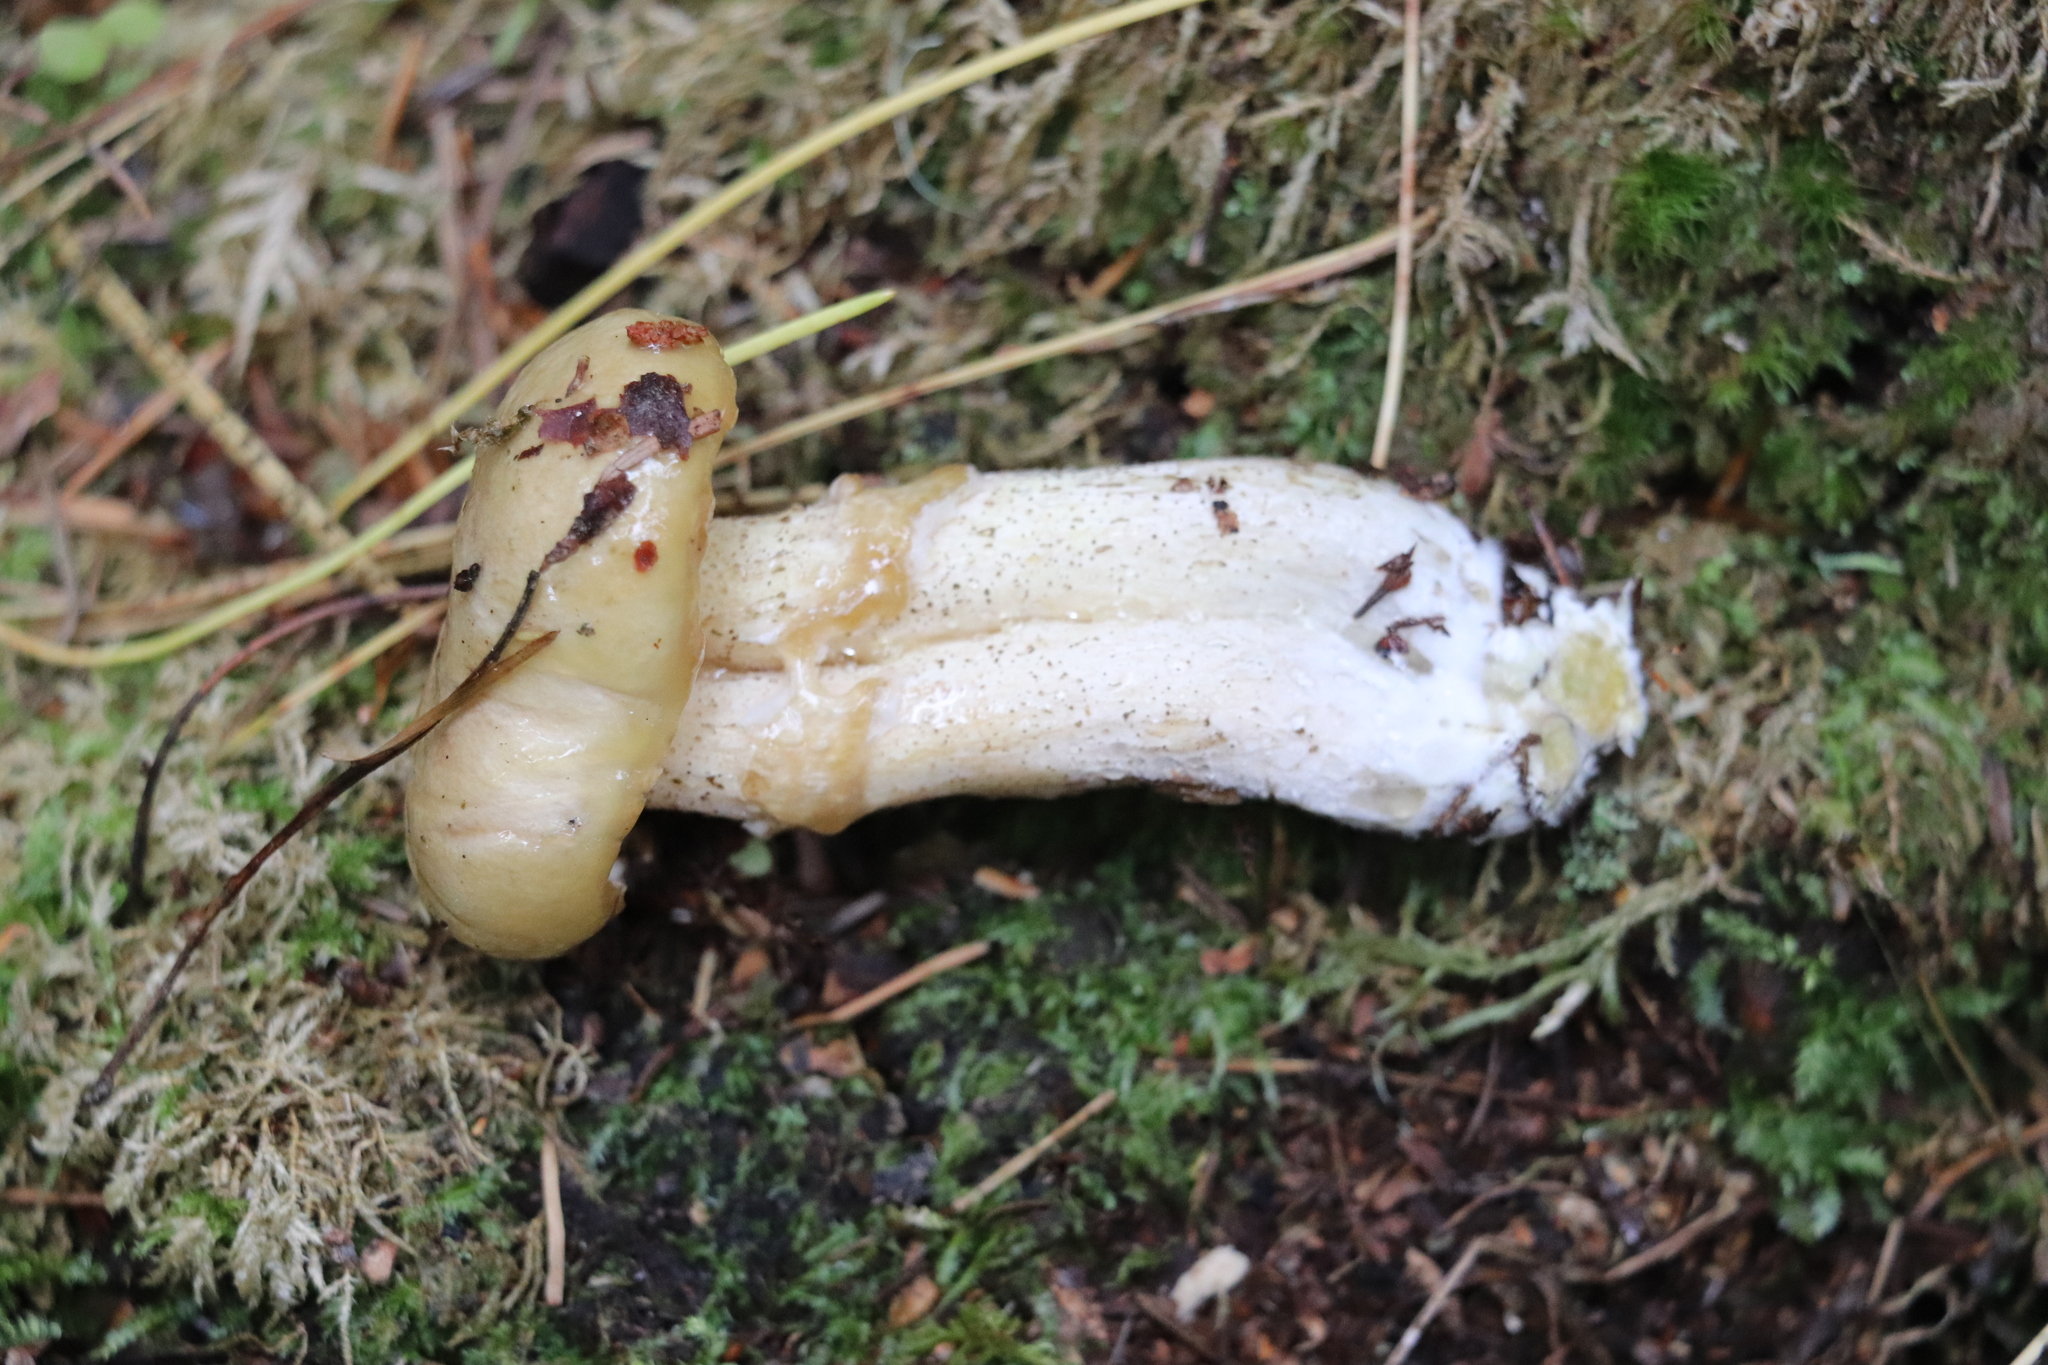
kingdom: Fungi
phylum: Basidiomycota
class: Agaricomycetes
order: Boletales
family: Suillaceae
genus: Suillus
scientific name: Suillus acidus
